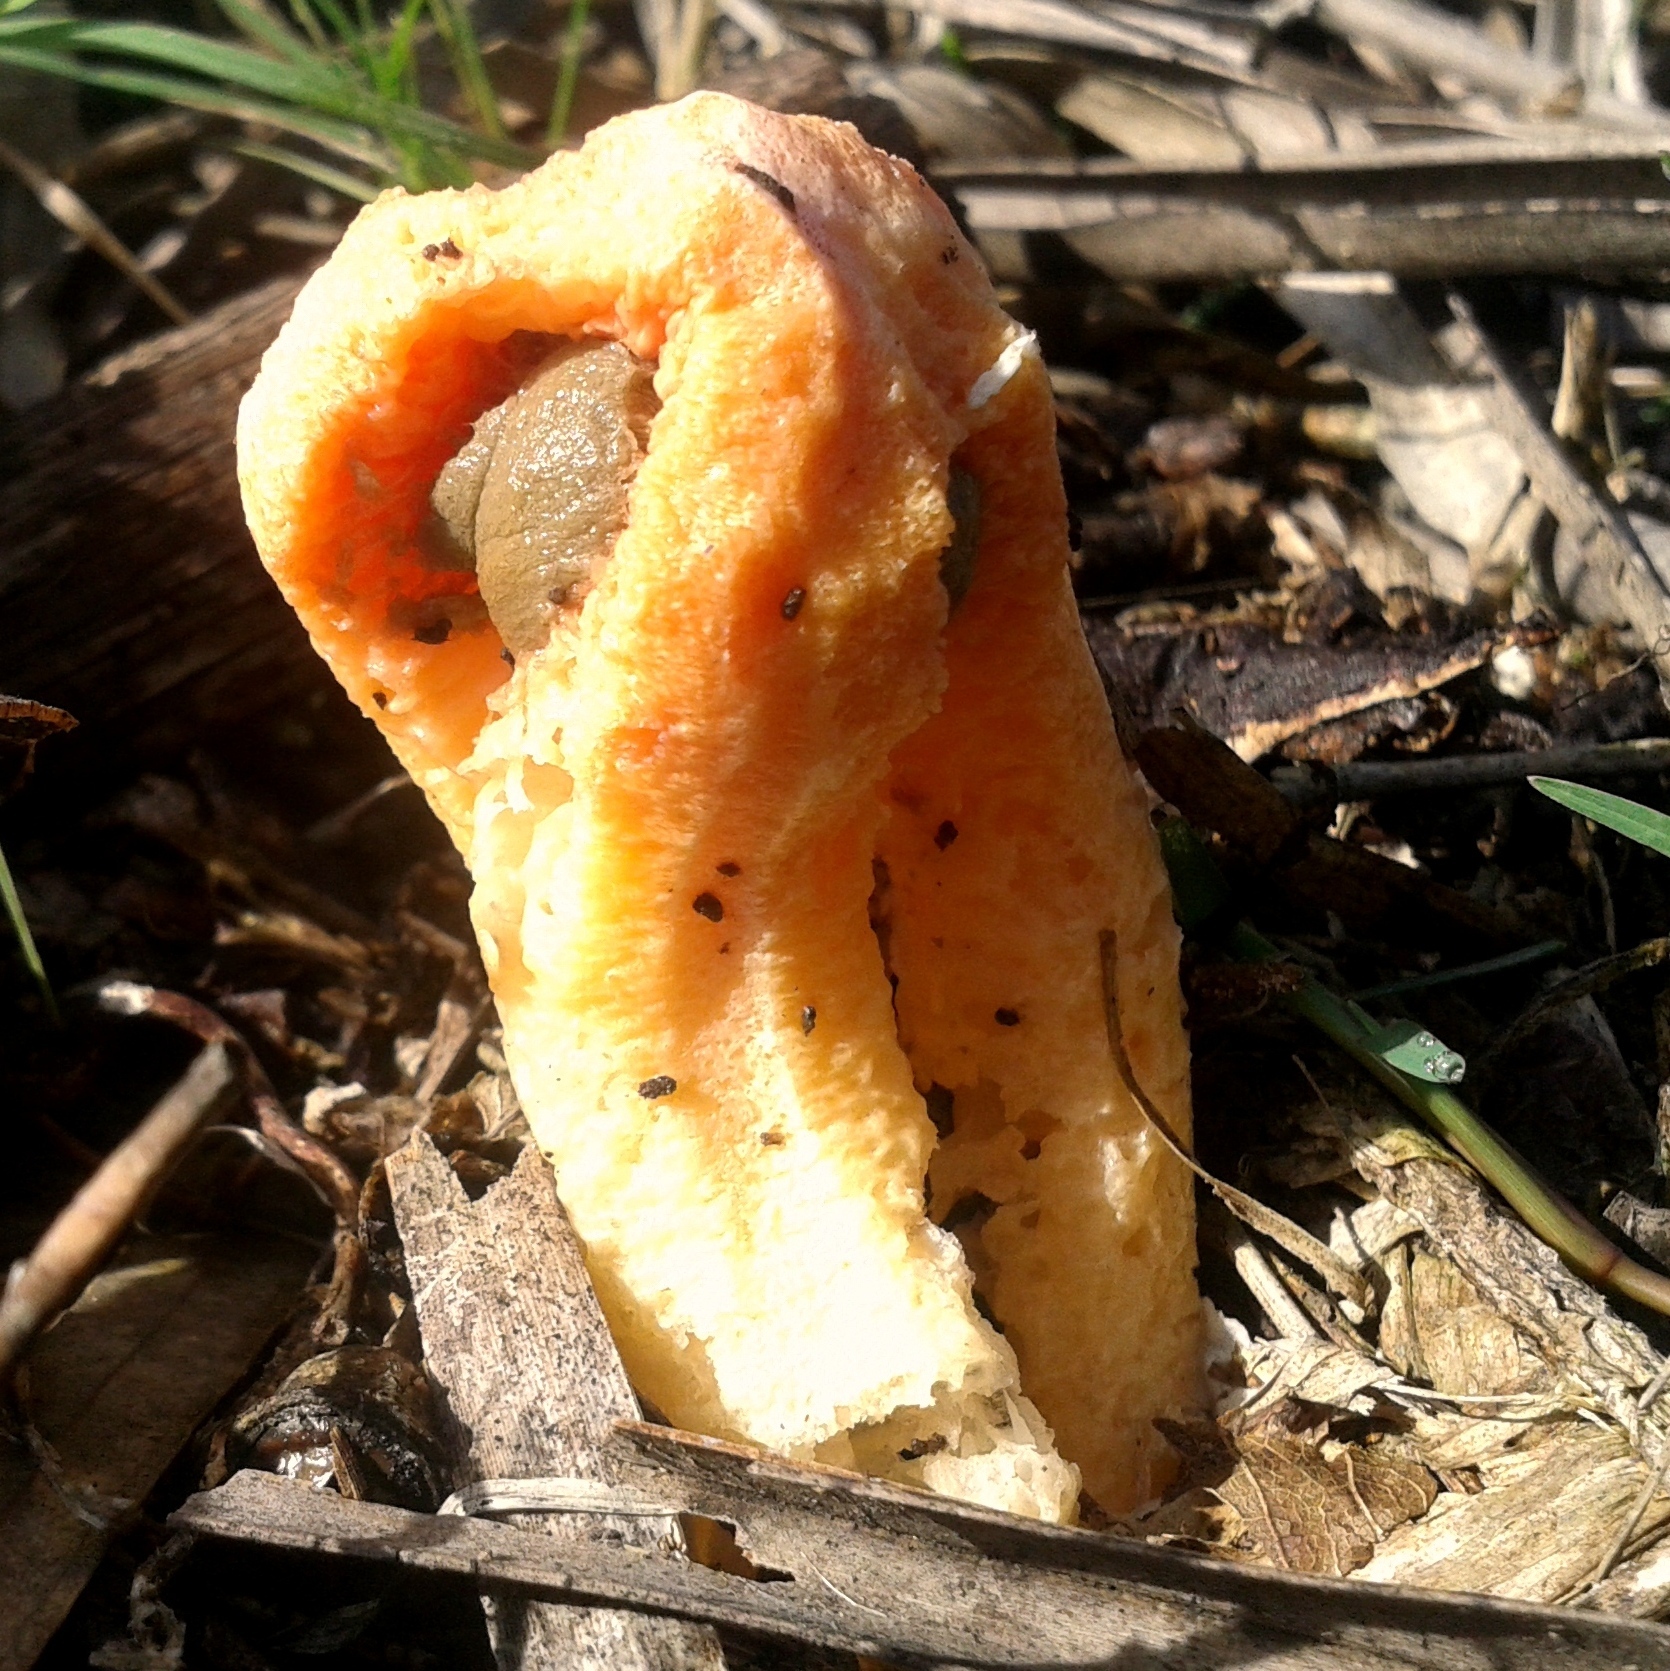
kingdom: Fungi
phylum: Basidiomycota
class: Agaricomycetes
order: Phallales
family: Phallaceae
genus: Clathrus
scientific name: Clathrus columnatus
